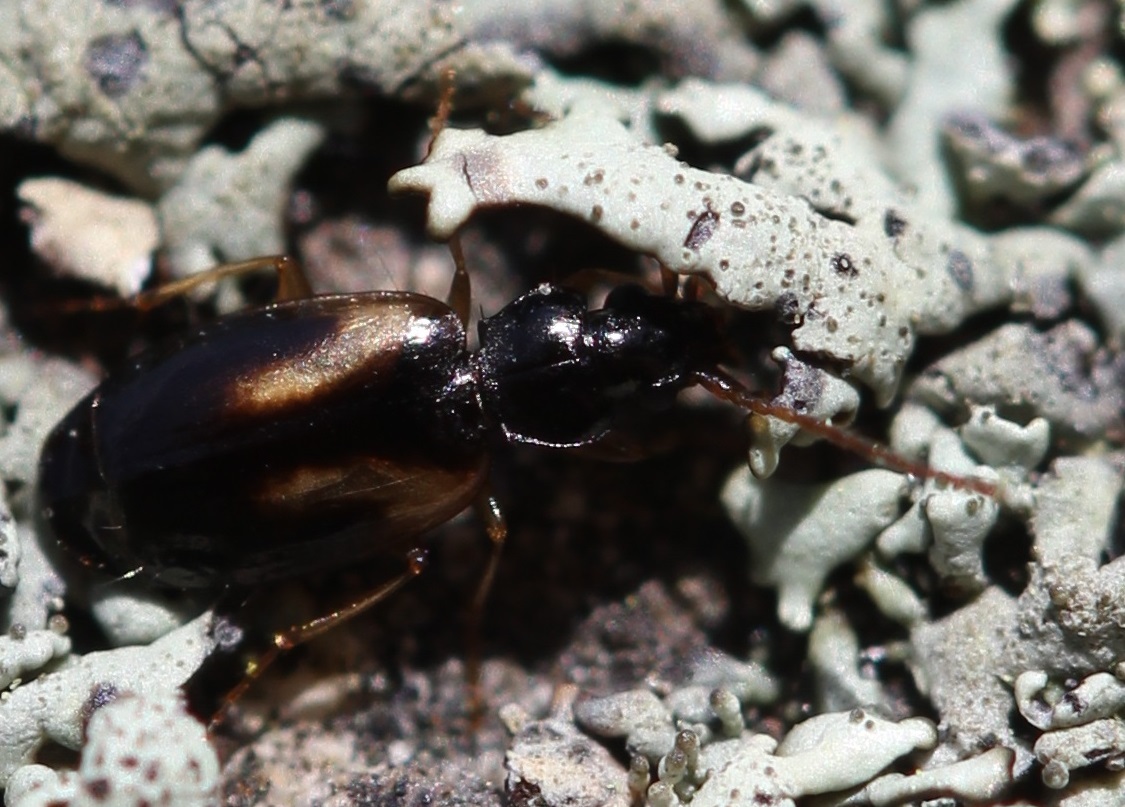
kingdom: Animalia
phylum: Arthropoda
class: Insecta
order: Coleoptera
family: Carabidae
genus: Axinopalpus
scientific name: Axinopalpus biplagiatus
